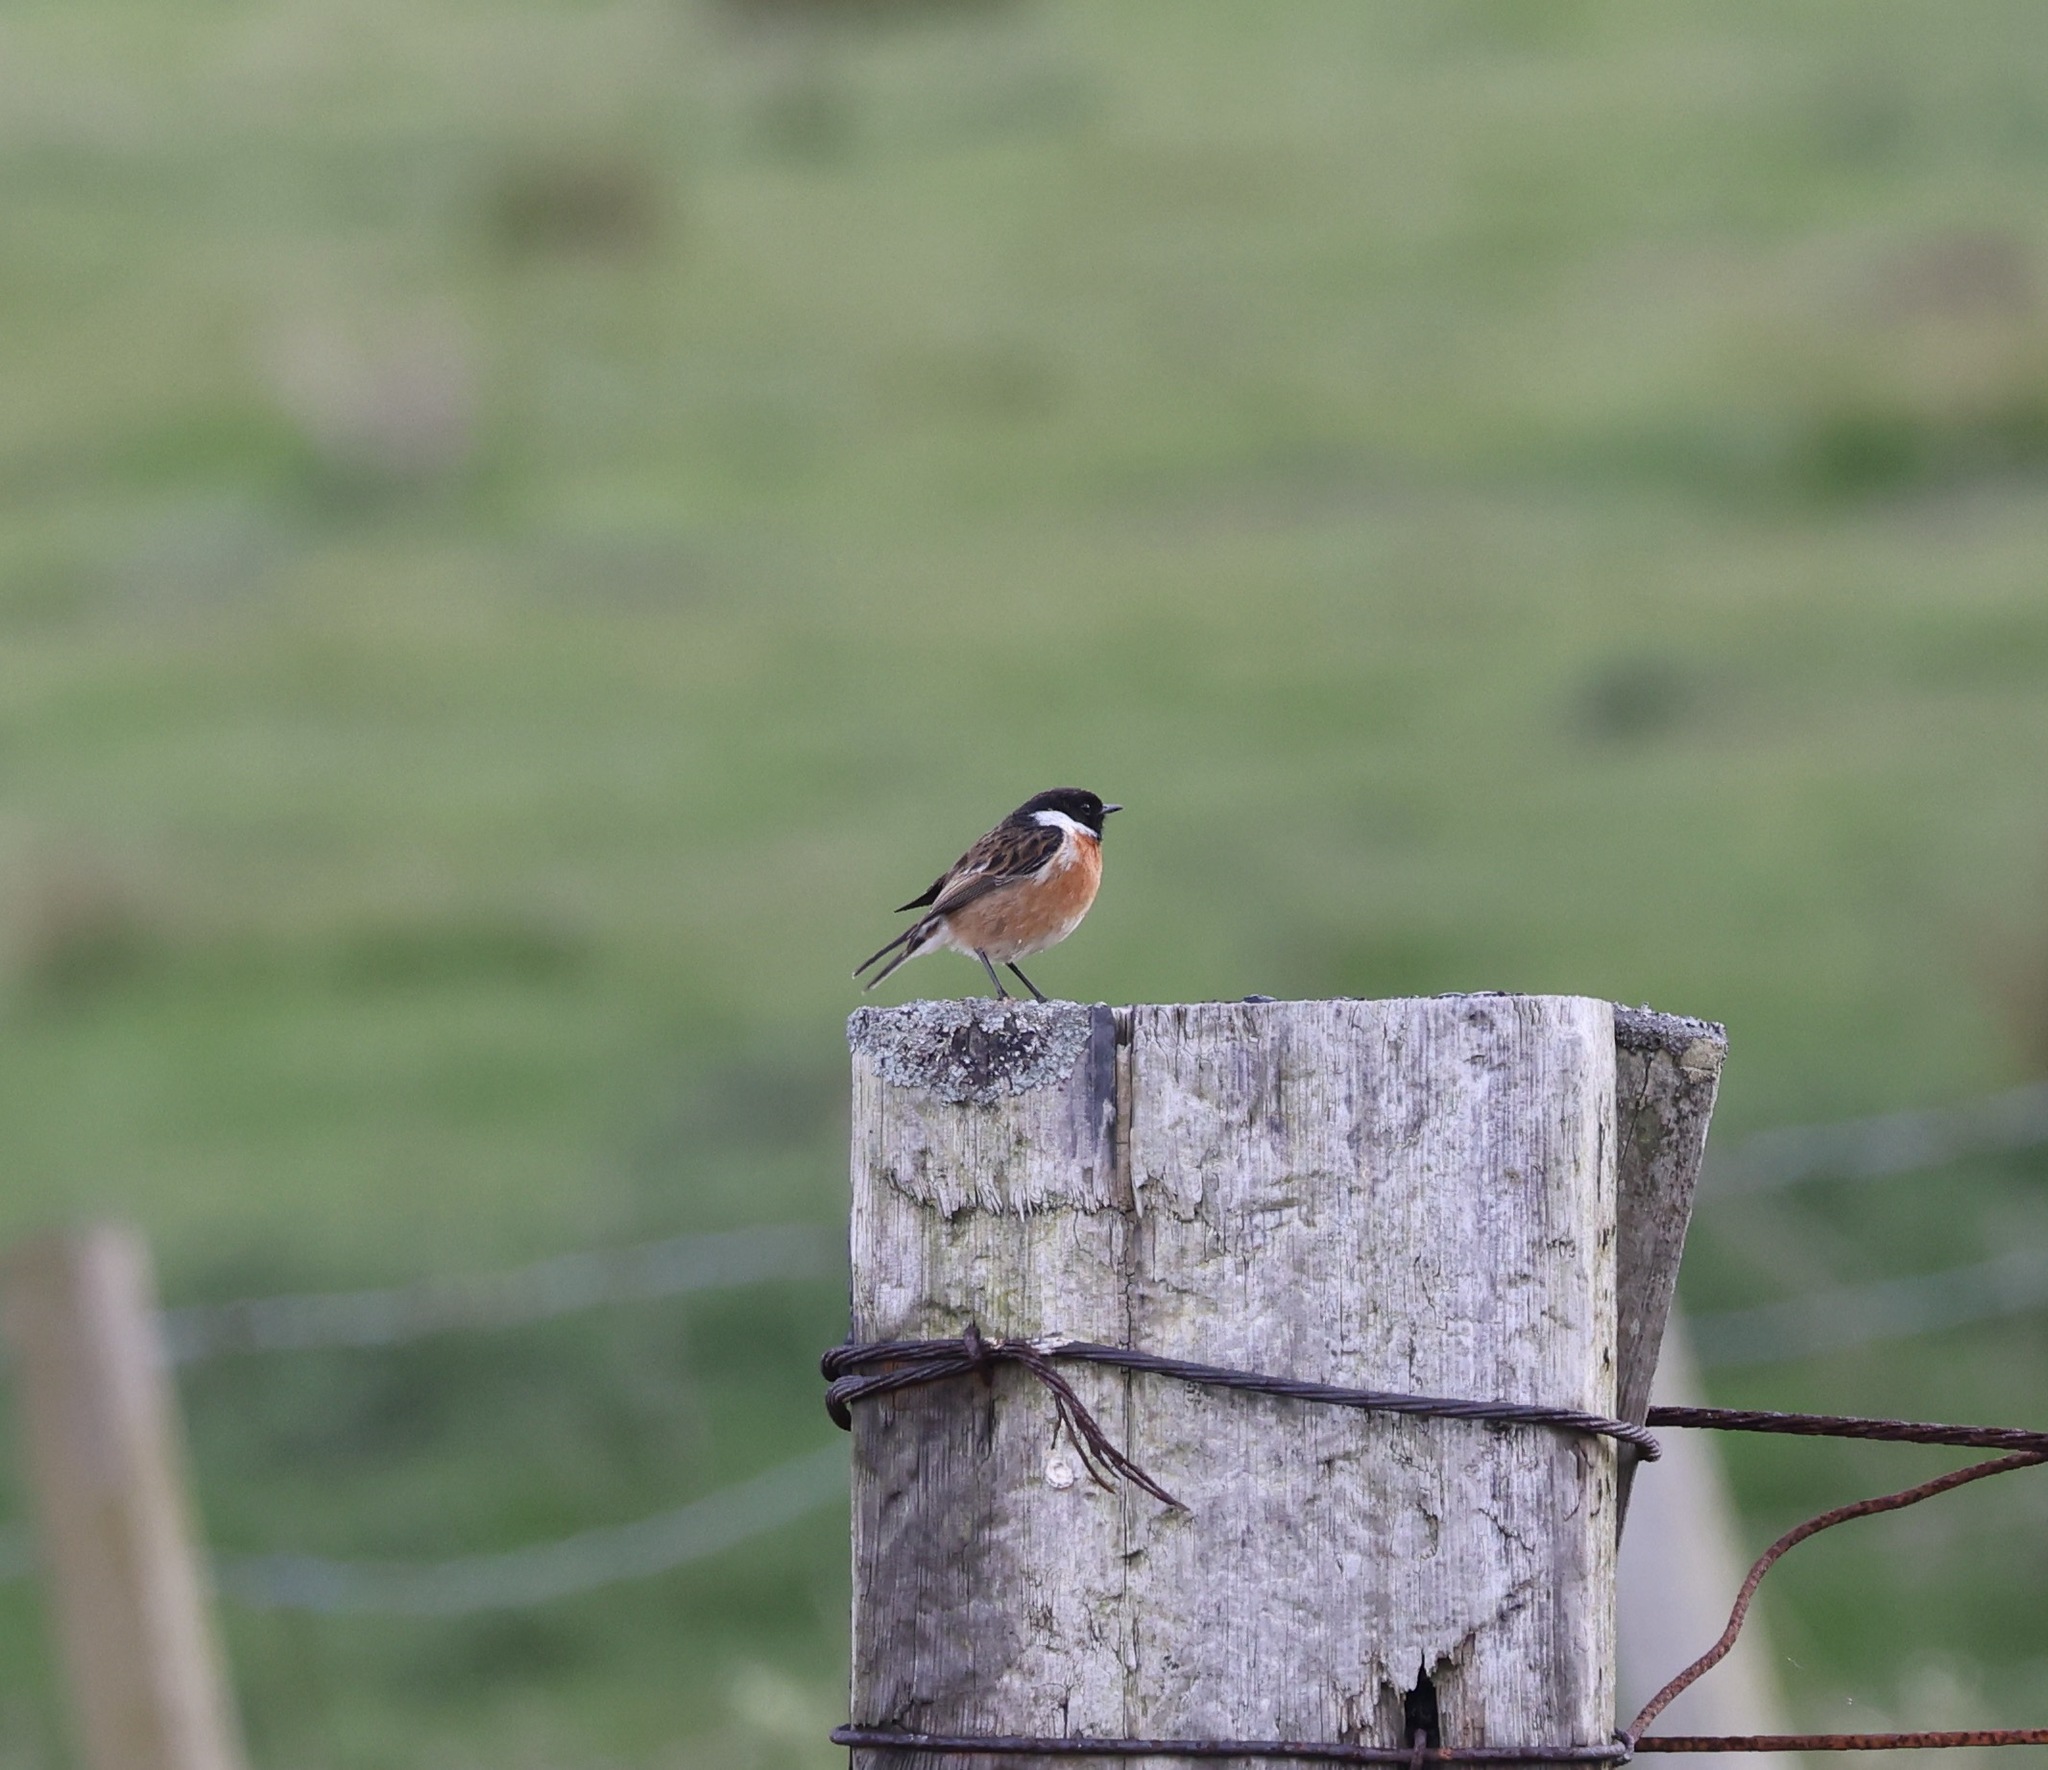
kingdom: Animalia
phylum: Chordata
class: Aves
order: Passeriformes
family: Muscicapidae
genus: Saxicola
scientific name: Saxicola rubicola
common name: European stonechat
